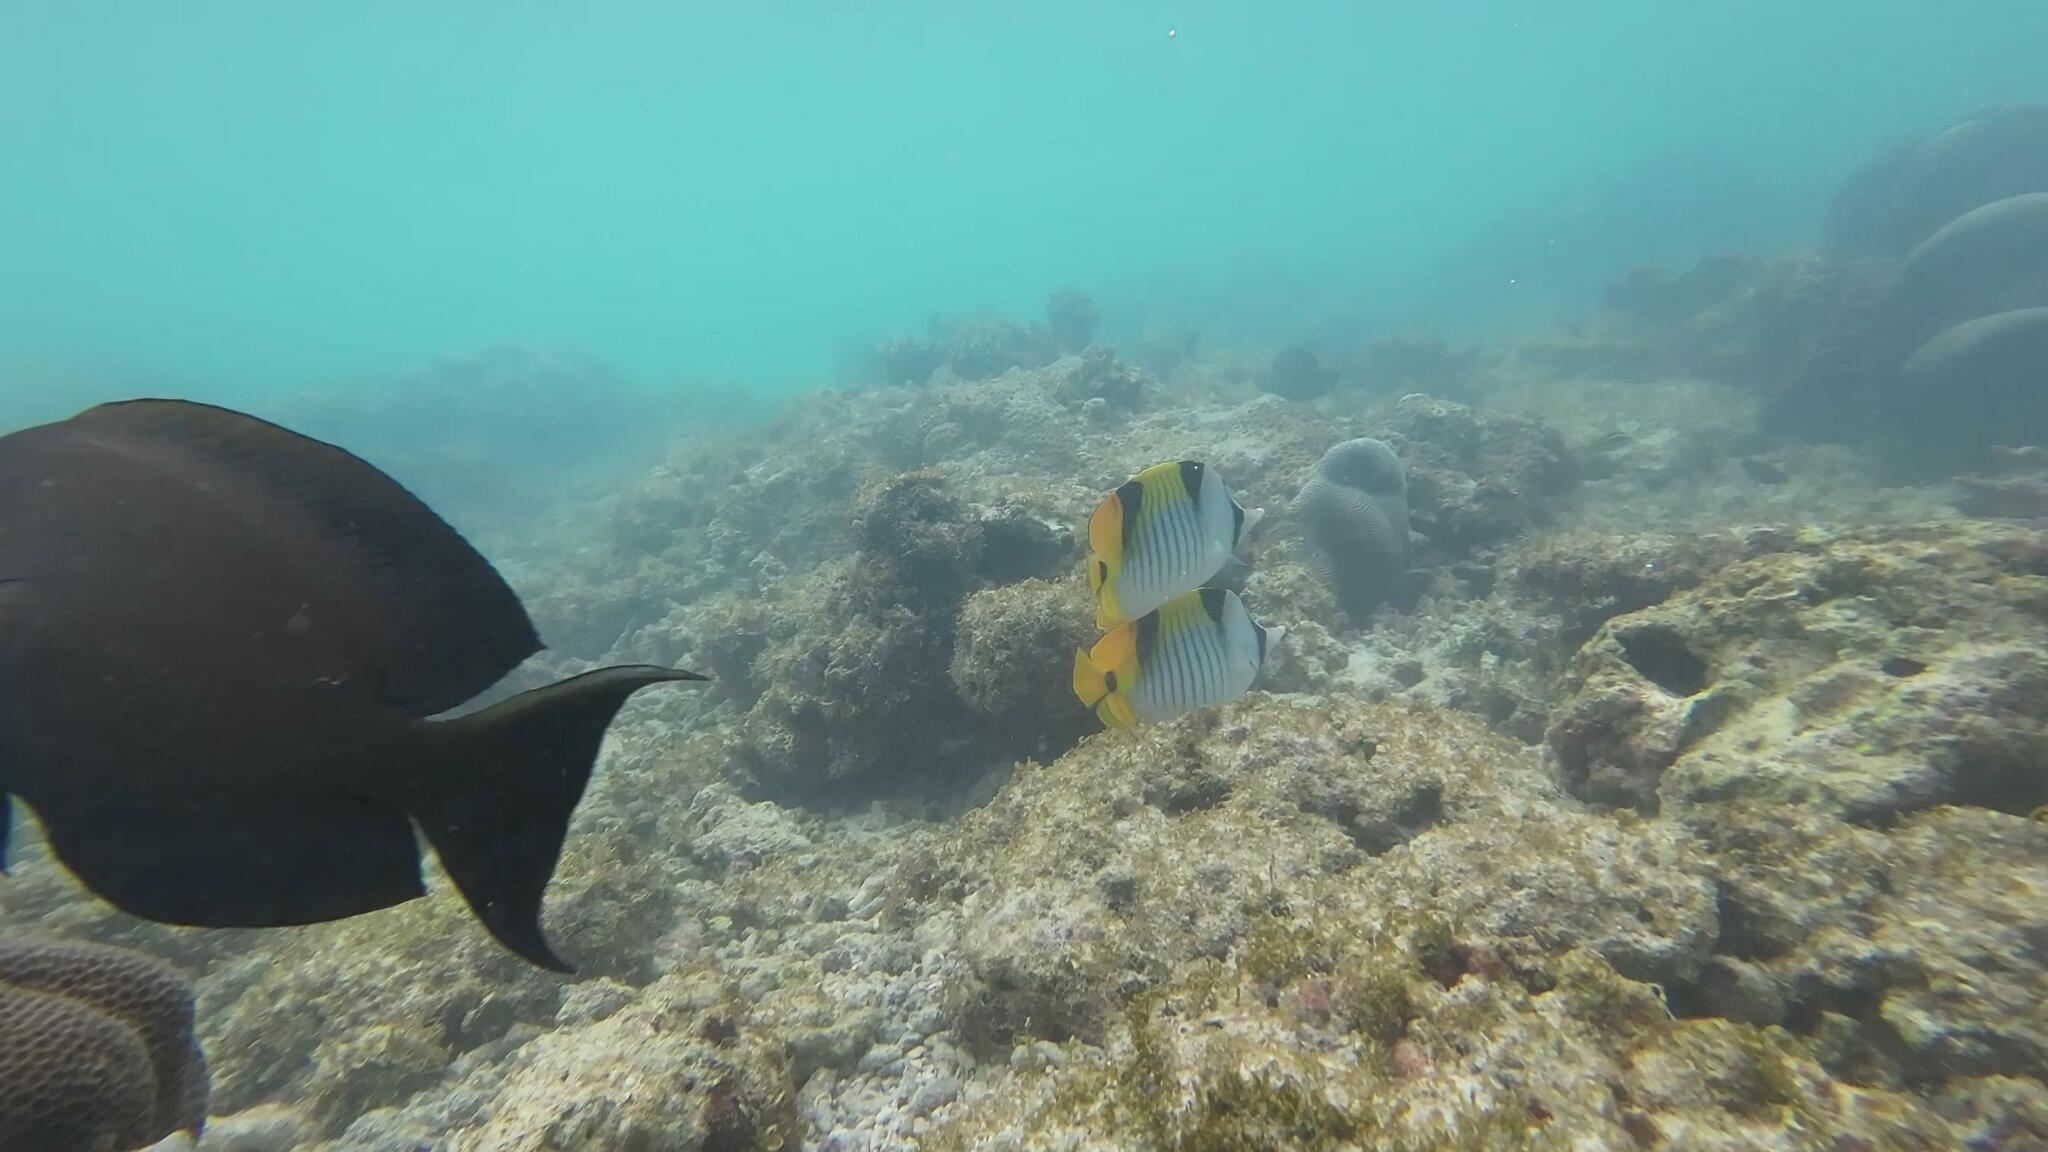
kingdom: Animalia
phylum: Chordata
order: Perciformes
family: Chaetodontidae
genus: Chaetodon
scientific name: Chaetodon falcula
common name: Blackwedged butterflyfish
